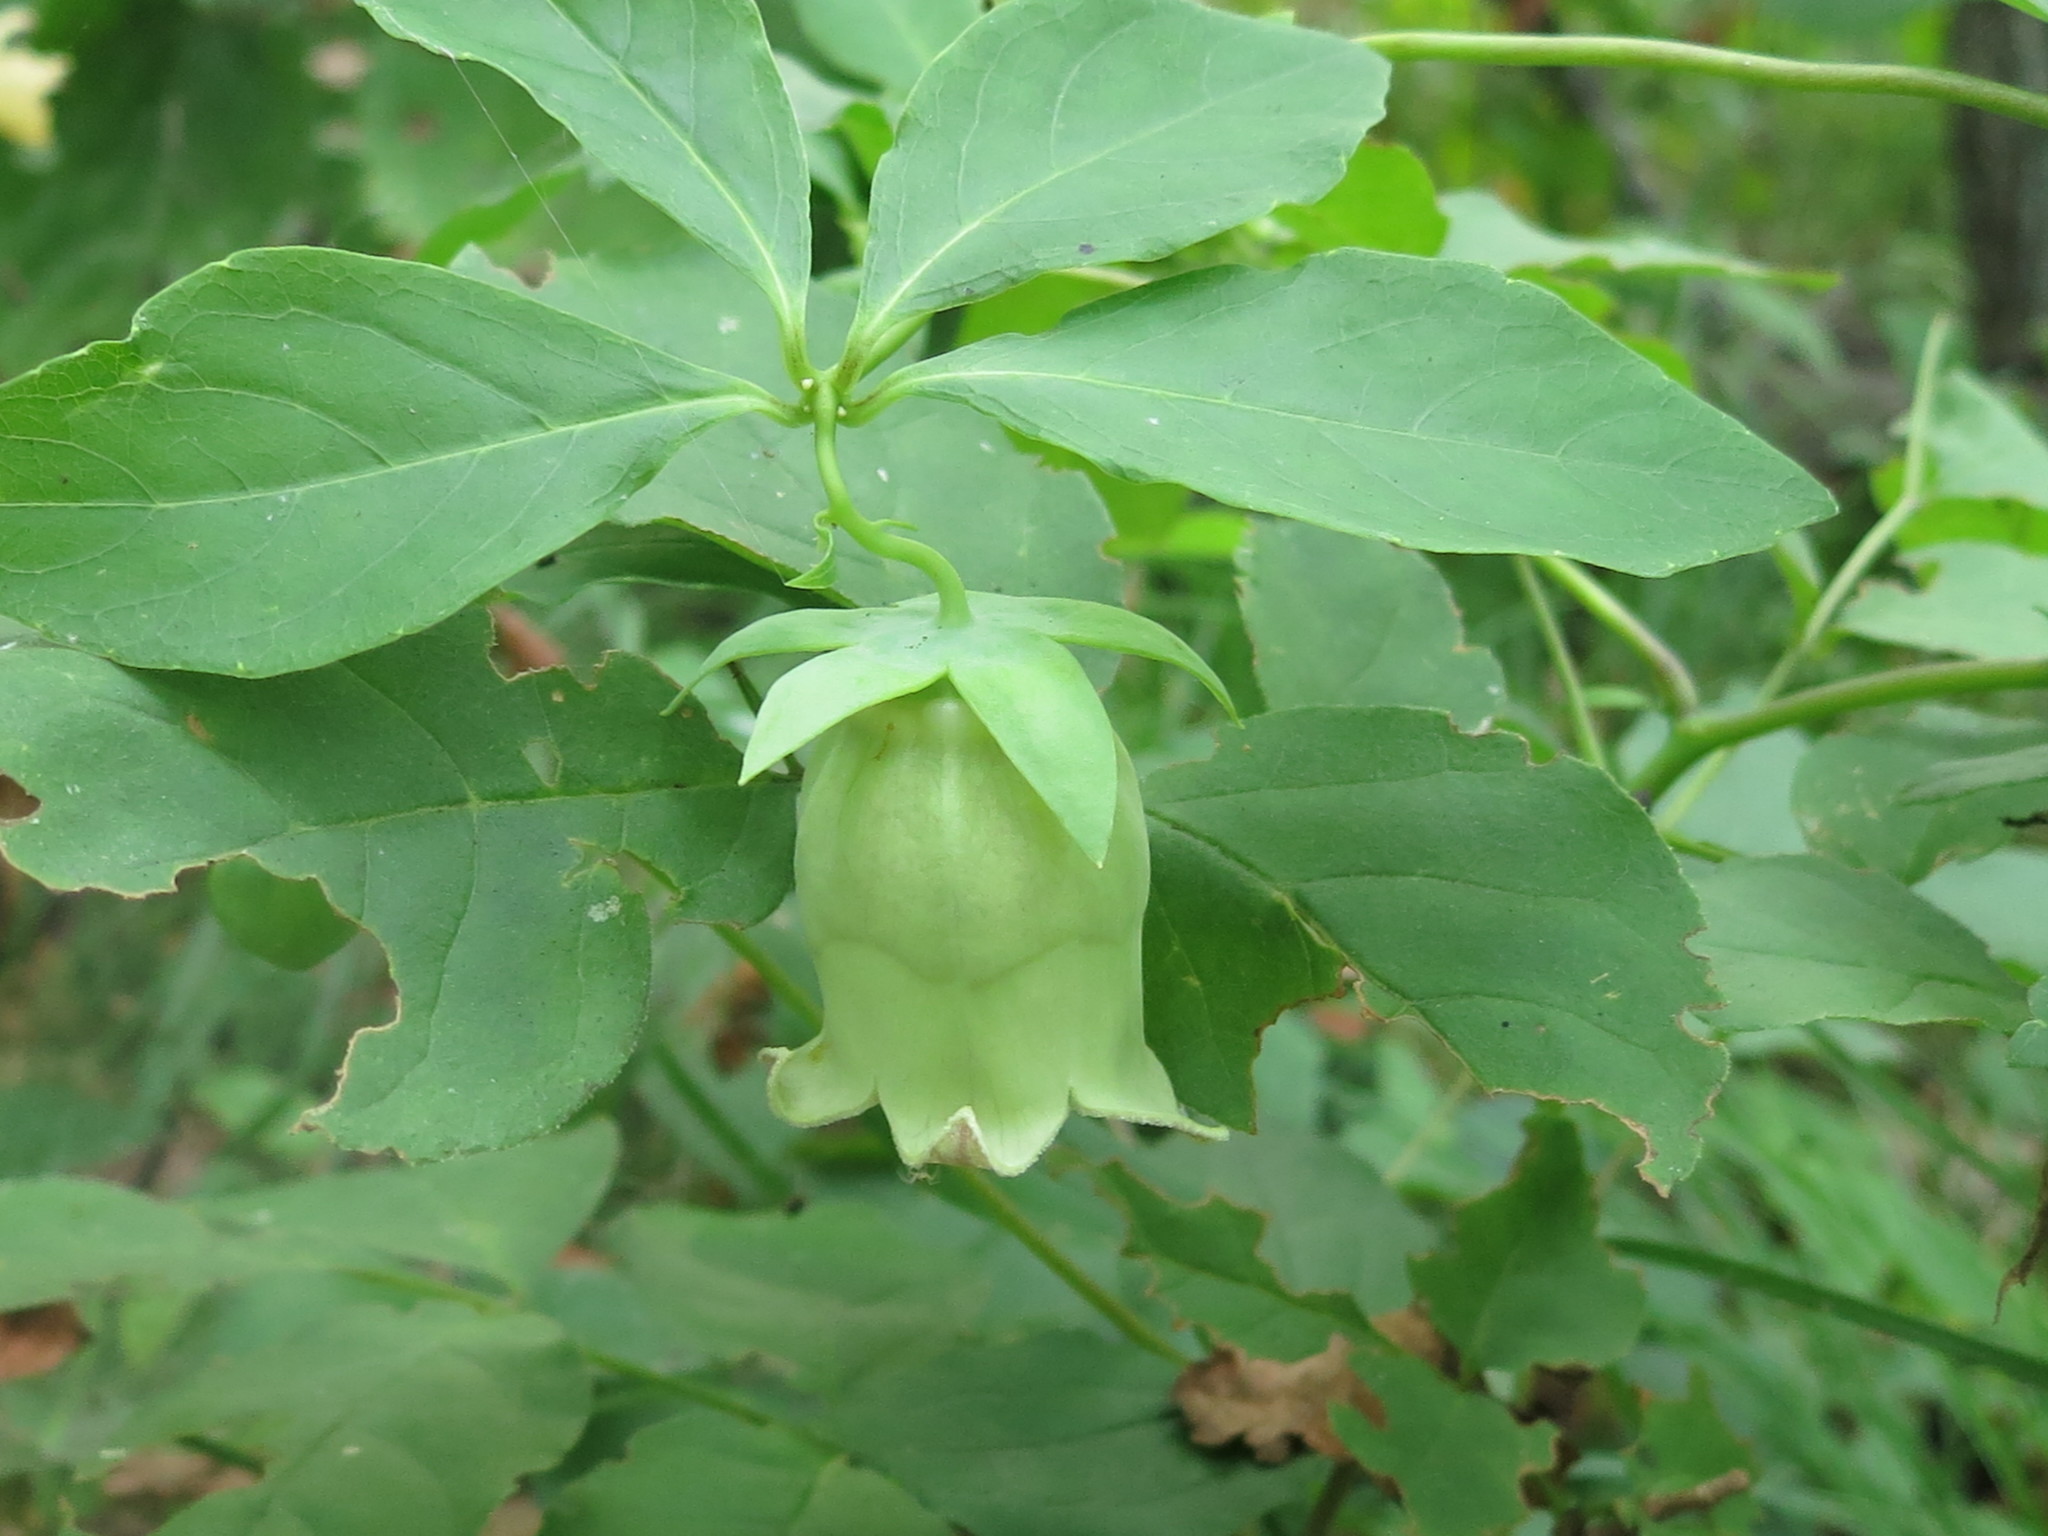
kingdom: Plantae
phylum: Tracheophyta
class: Magnoliopsida
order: Asterales
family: Campanulaceae
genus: Codonopsis
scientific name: Codonopsis lanceolata
